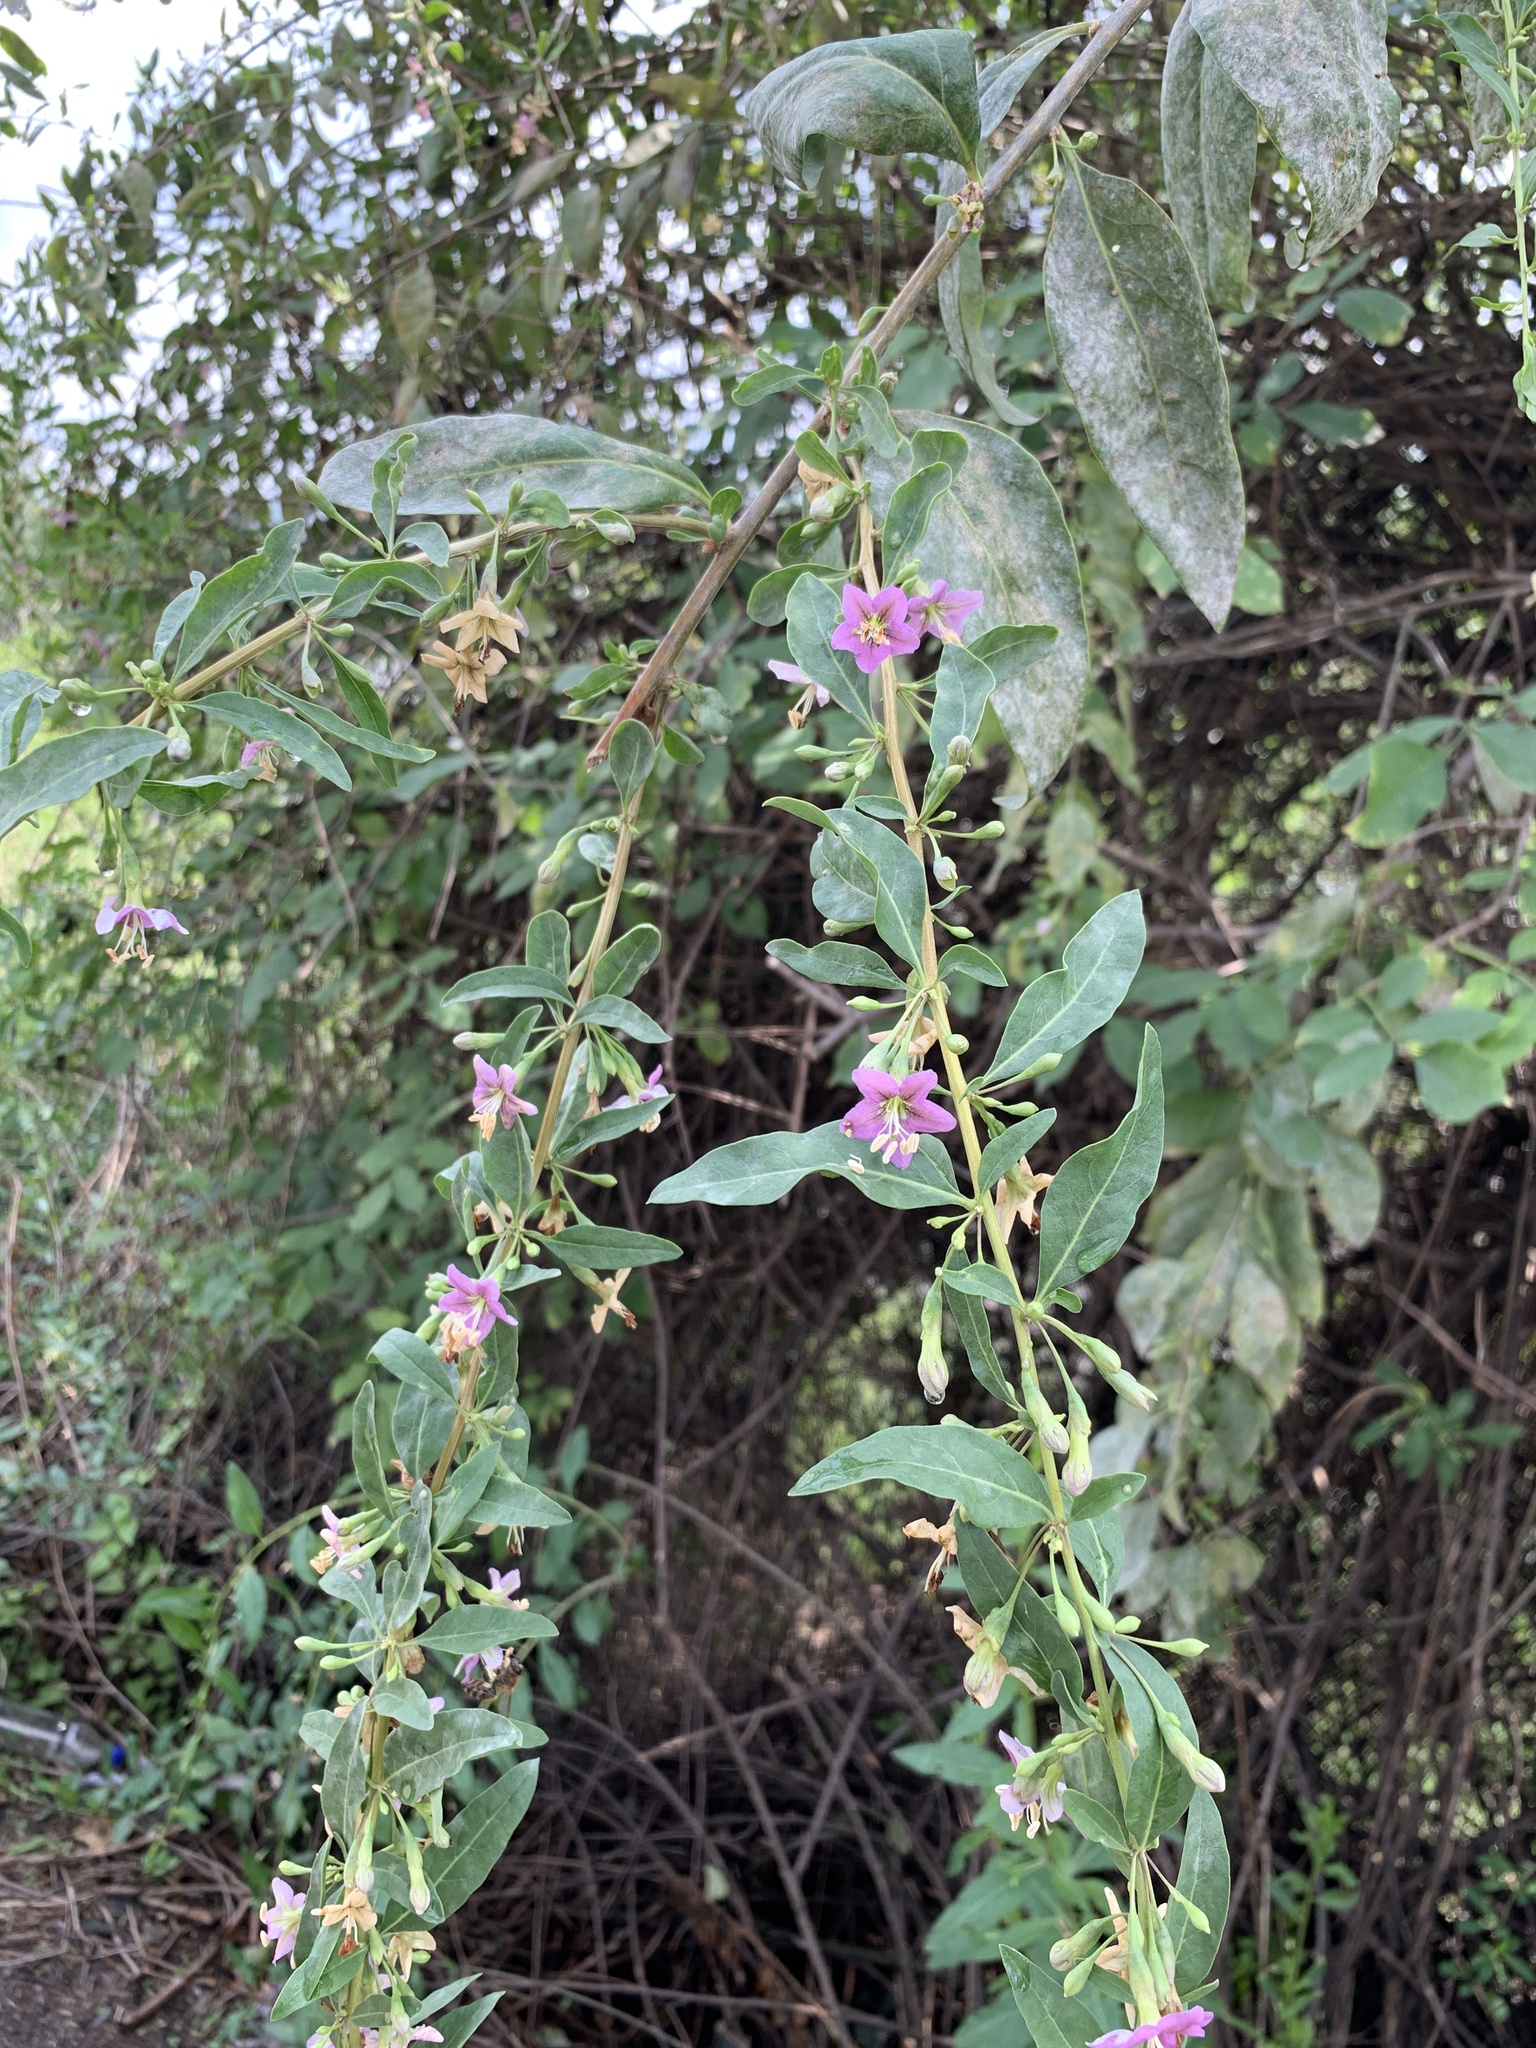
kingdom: Plantae
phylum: Tracheophyta
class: Magnoliopsida
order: Solanales
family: Solanaceae
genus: Lycium
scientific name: Lycium barbarum
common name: Duke of argyll's teaplant
